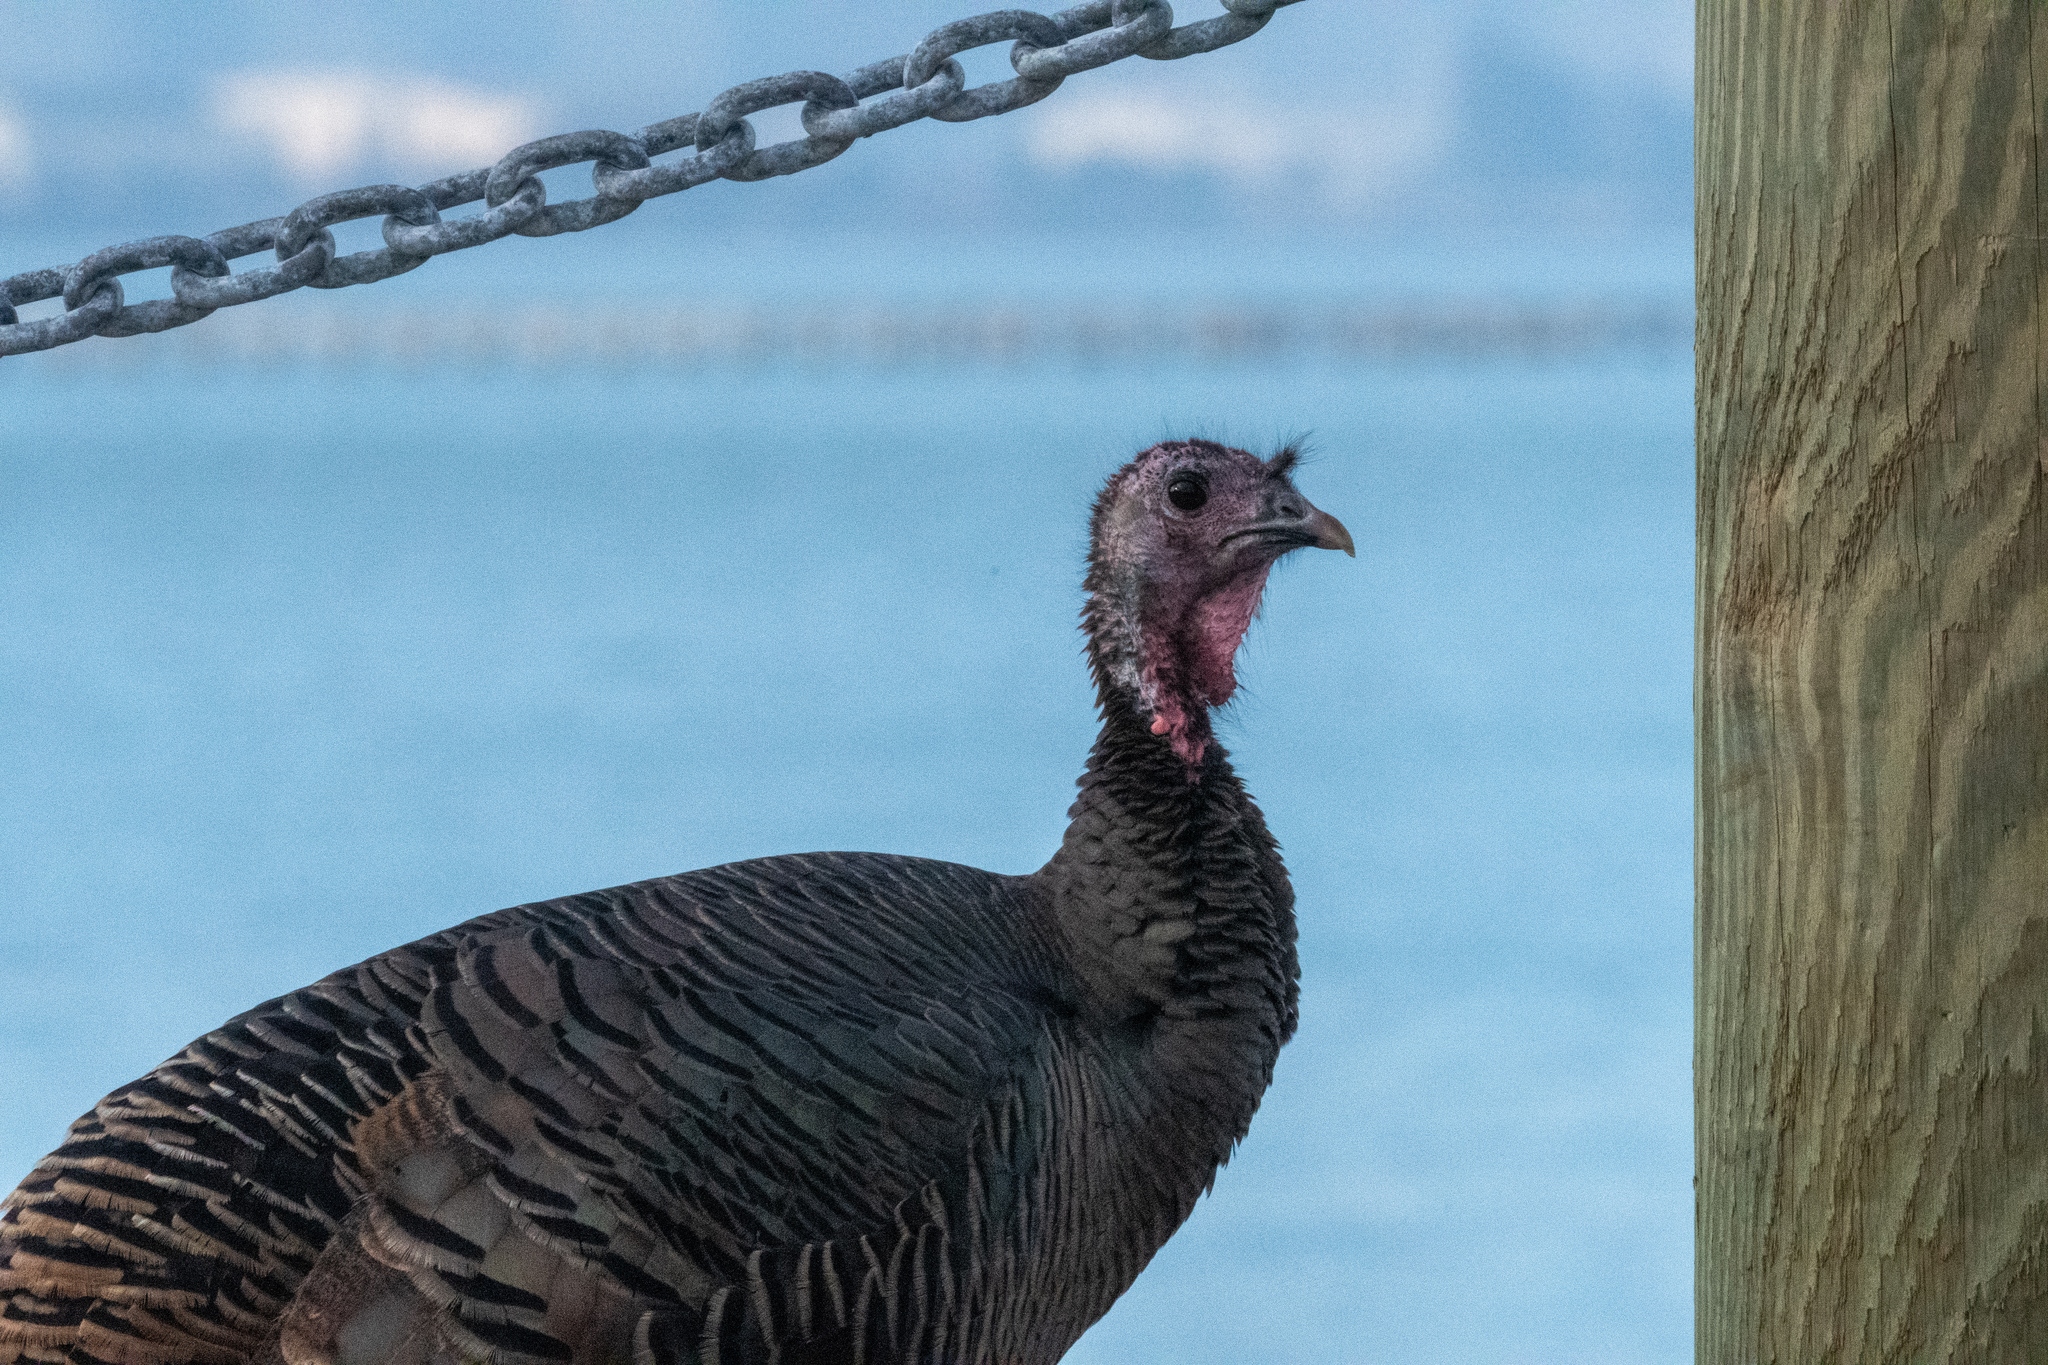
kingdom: Animalia
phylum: Chordata
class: Aves
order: Galliformes
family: Phasianidae
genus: Meleagris
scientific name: Meleagris gallopavo
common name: Wild turkey
